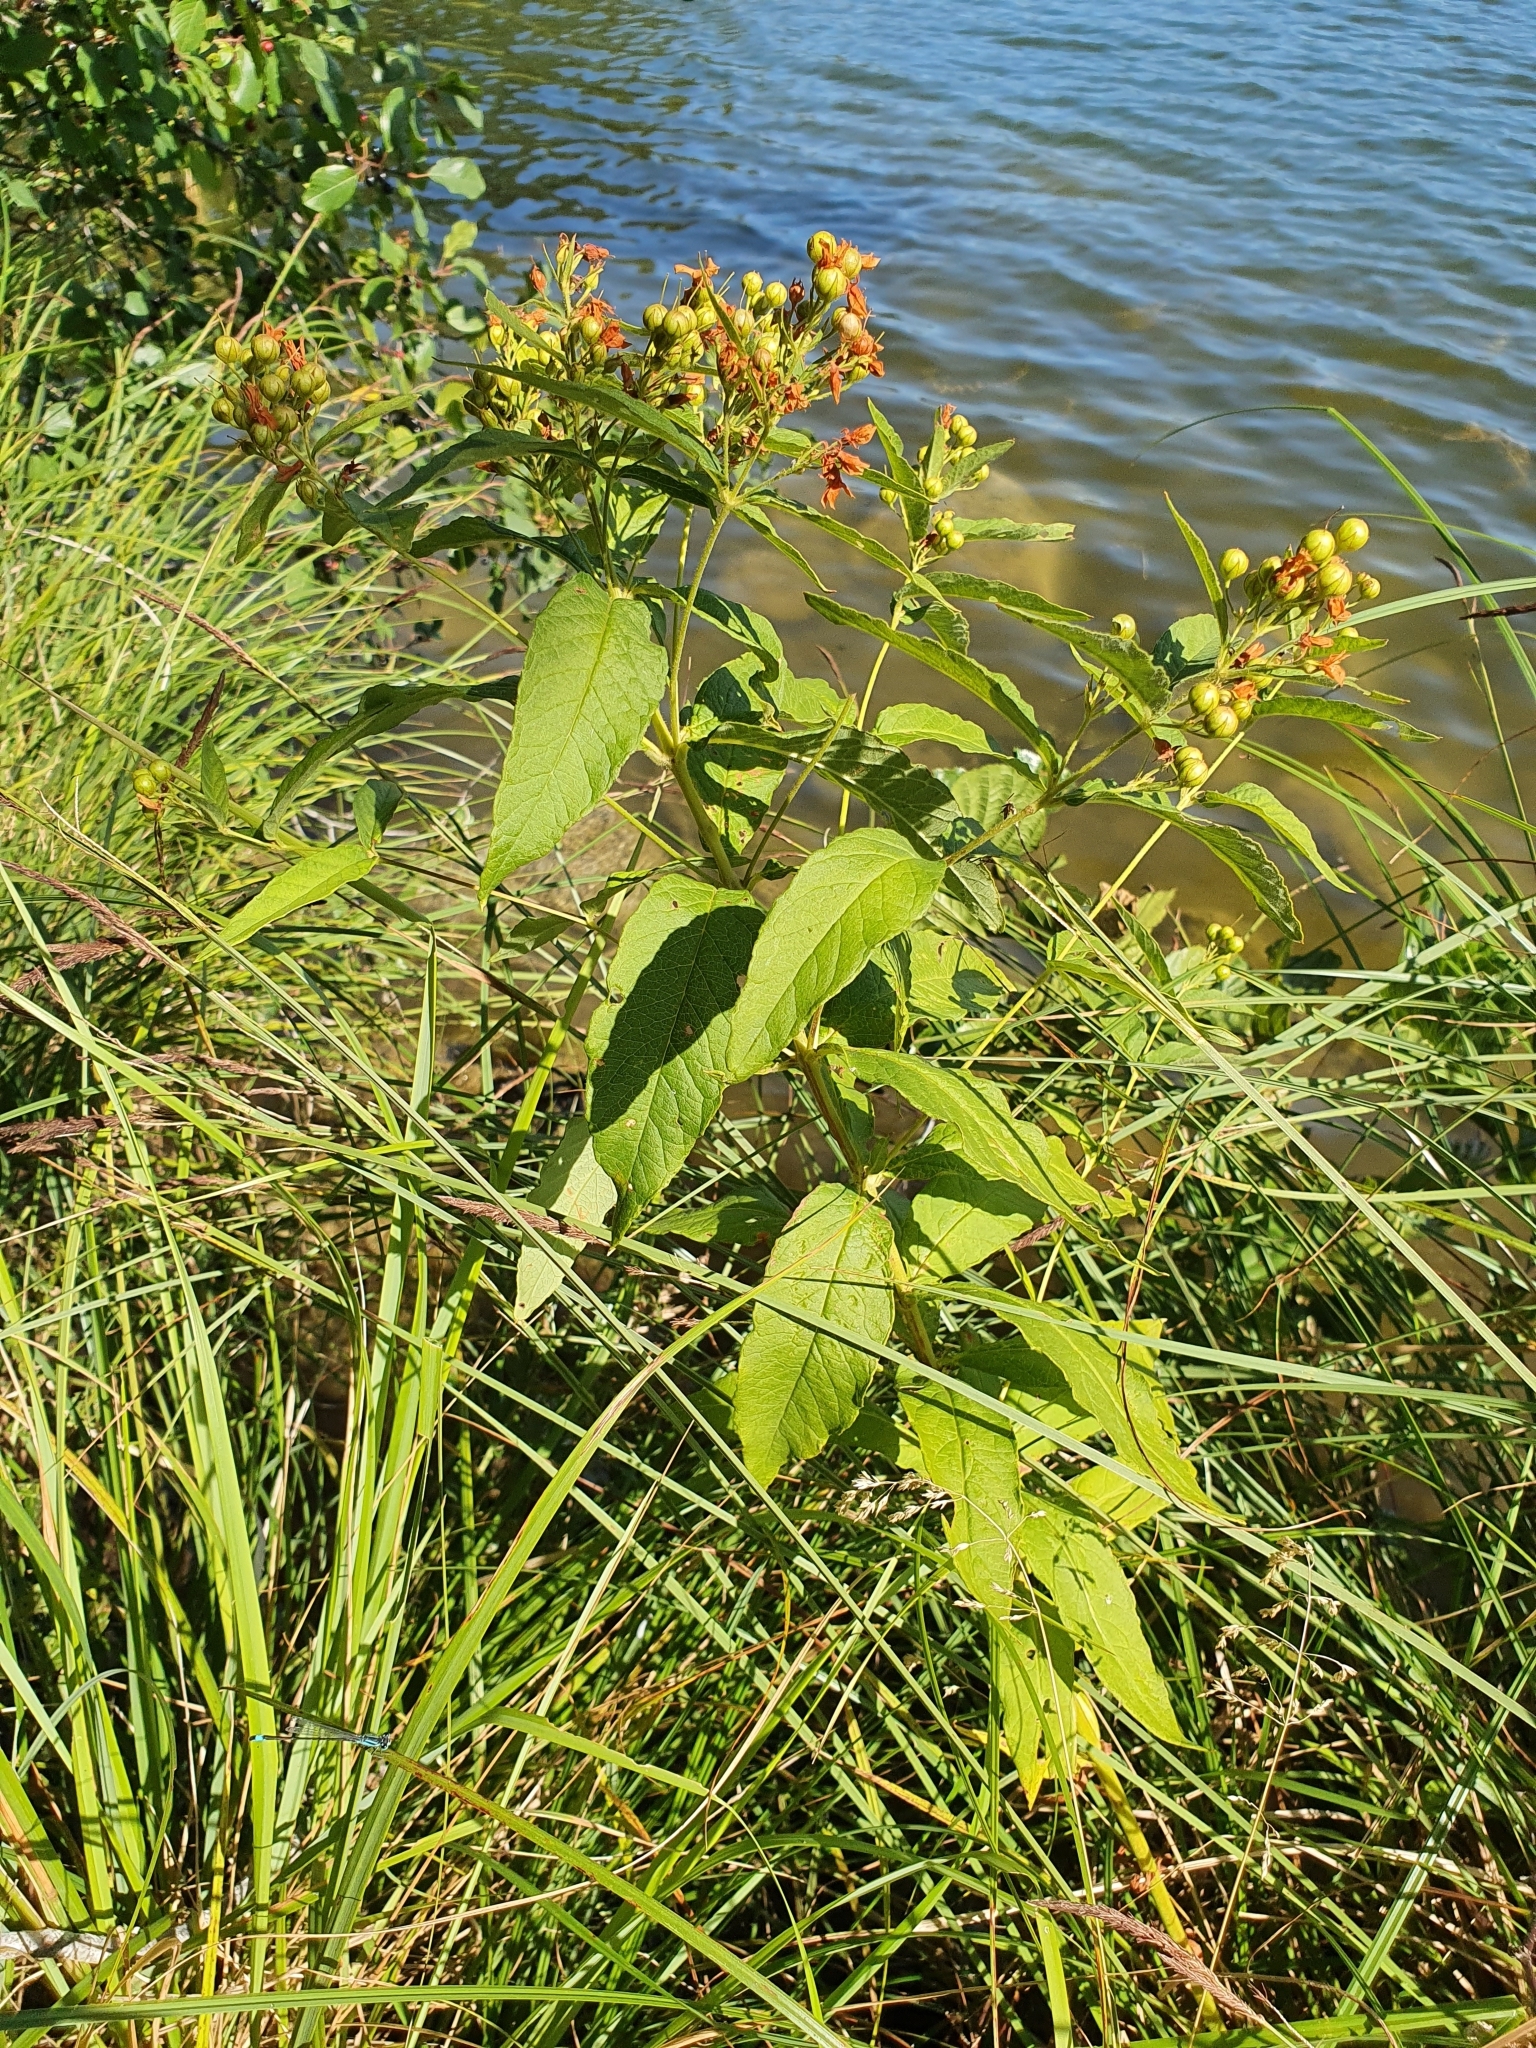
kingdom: Plantae
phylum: Tracheophyta
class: Magnoliopsida
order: Ericales
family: Primulaceae
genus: Lysimachia
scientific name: Lysimachia vulgaris
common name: Yellow loosestrife
